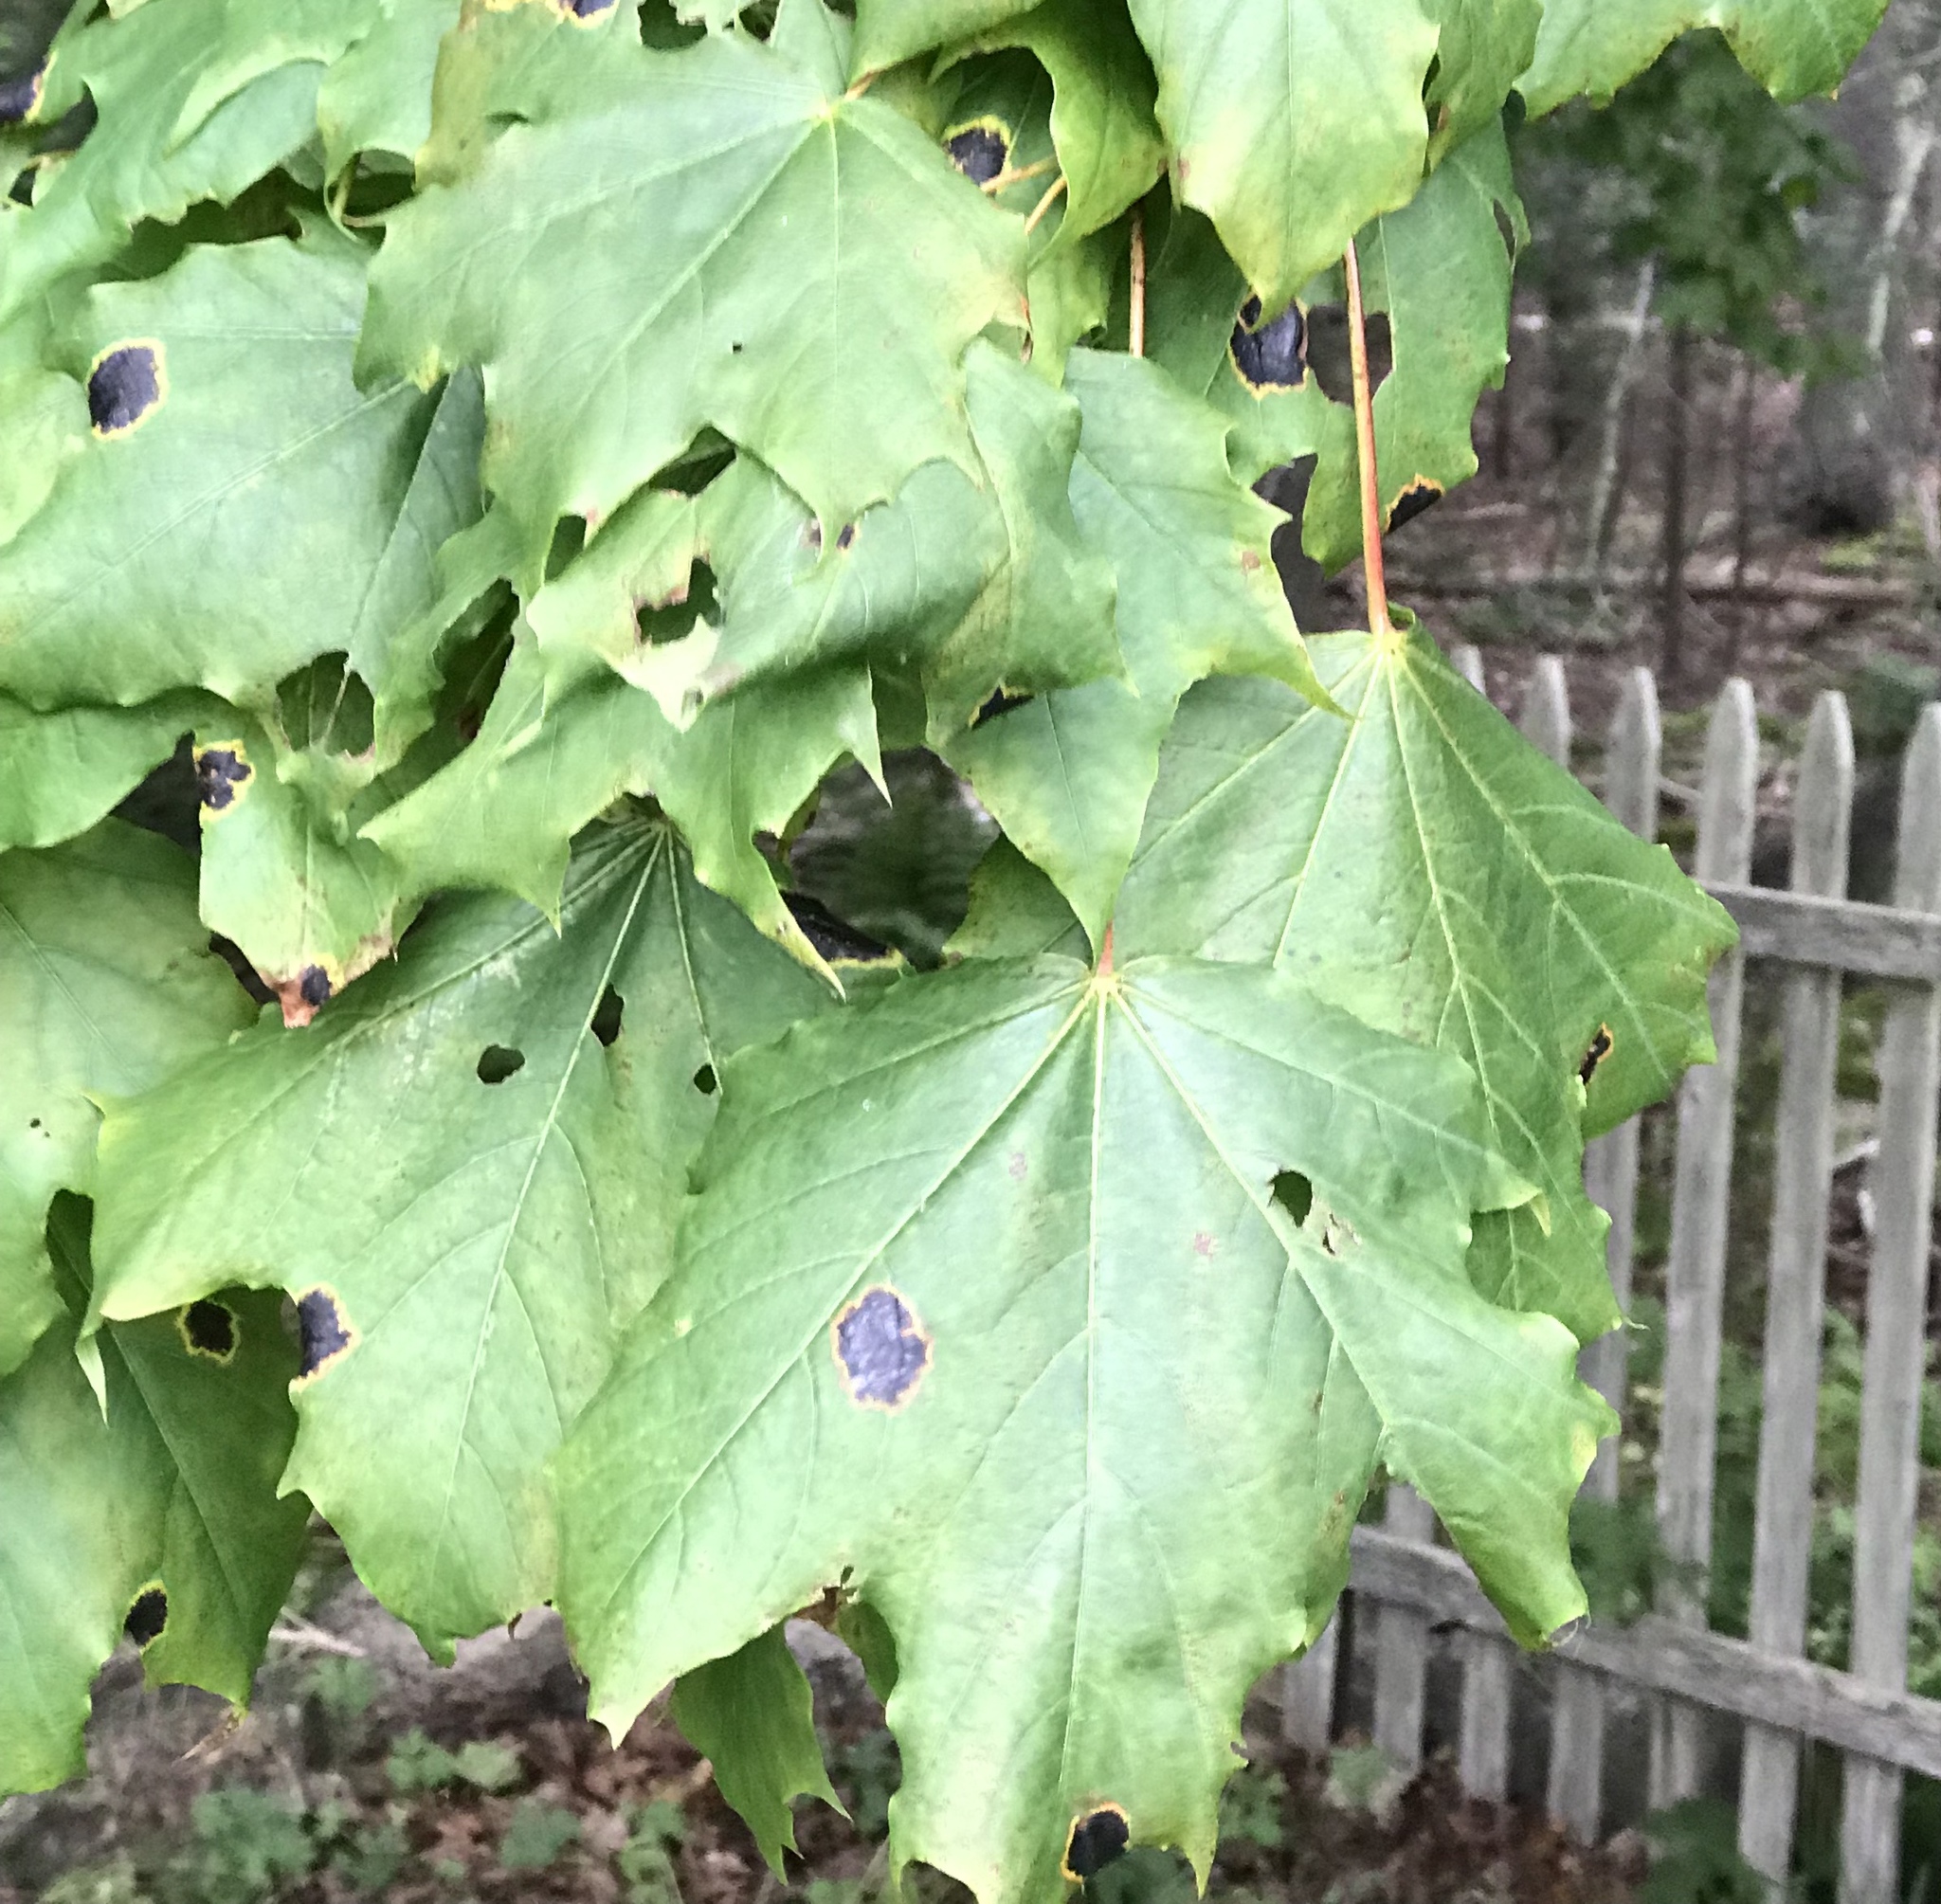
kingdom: Fungi
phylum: Ascomycota
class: Leotiomycetes
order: Rhytismatales
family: Rhytismataceae
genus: Rhytisma
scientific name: Rhytisma acerinum
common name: European tar spot
